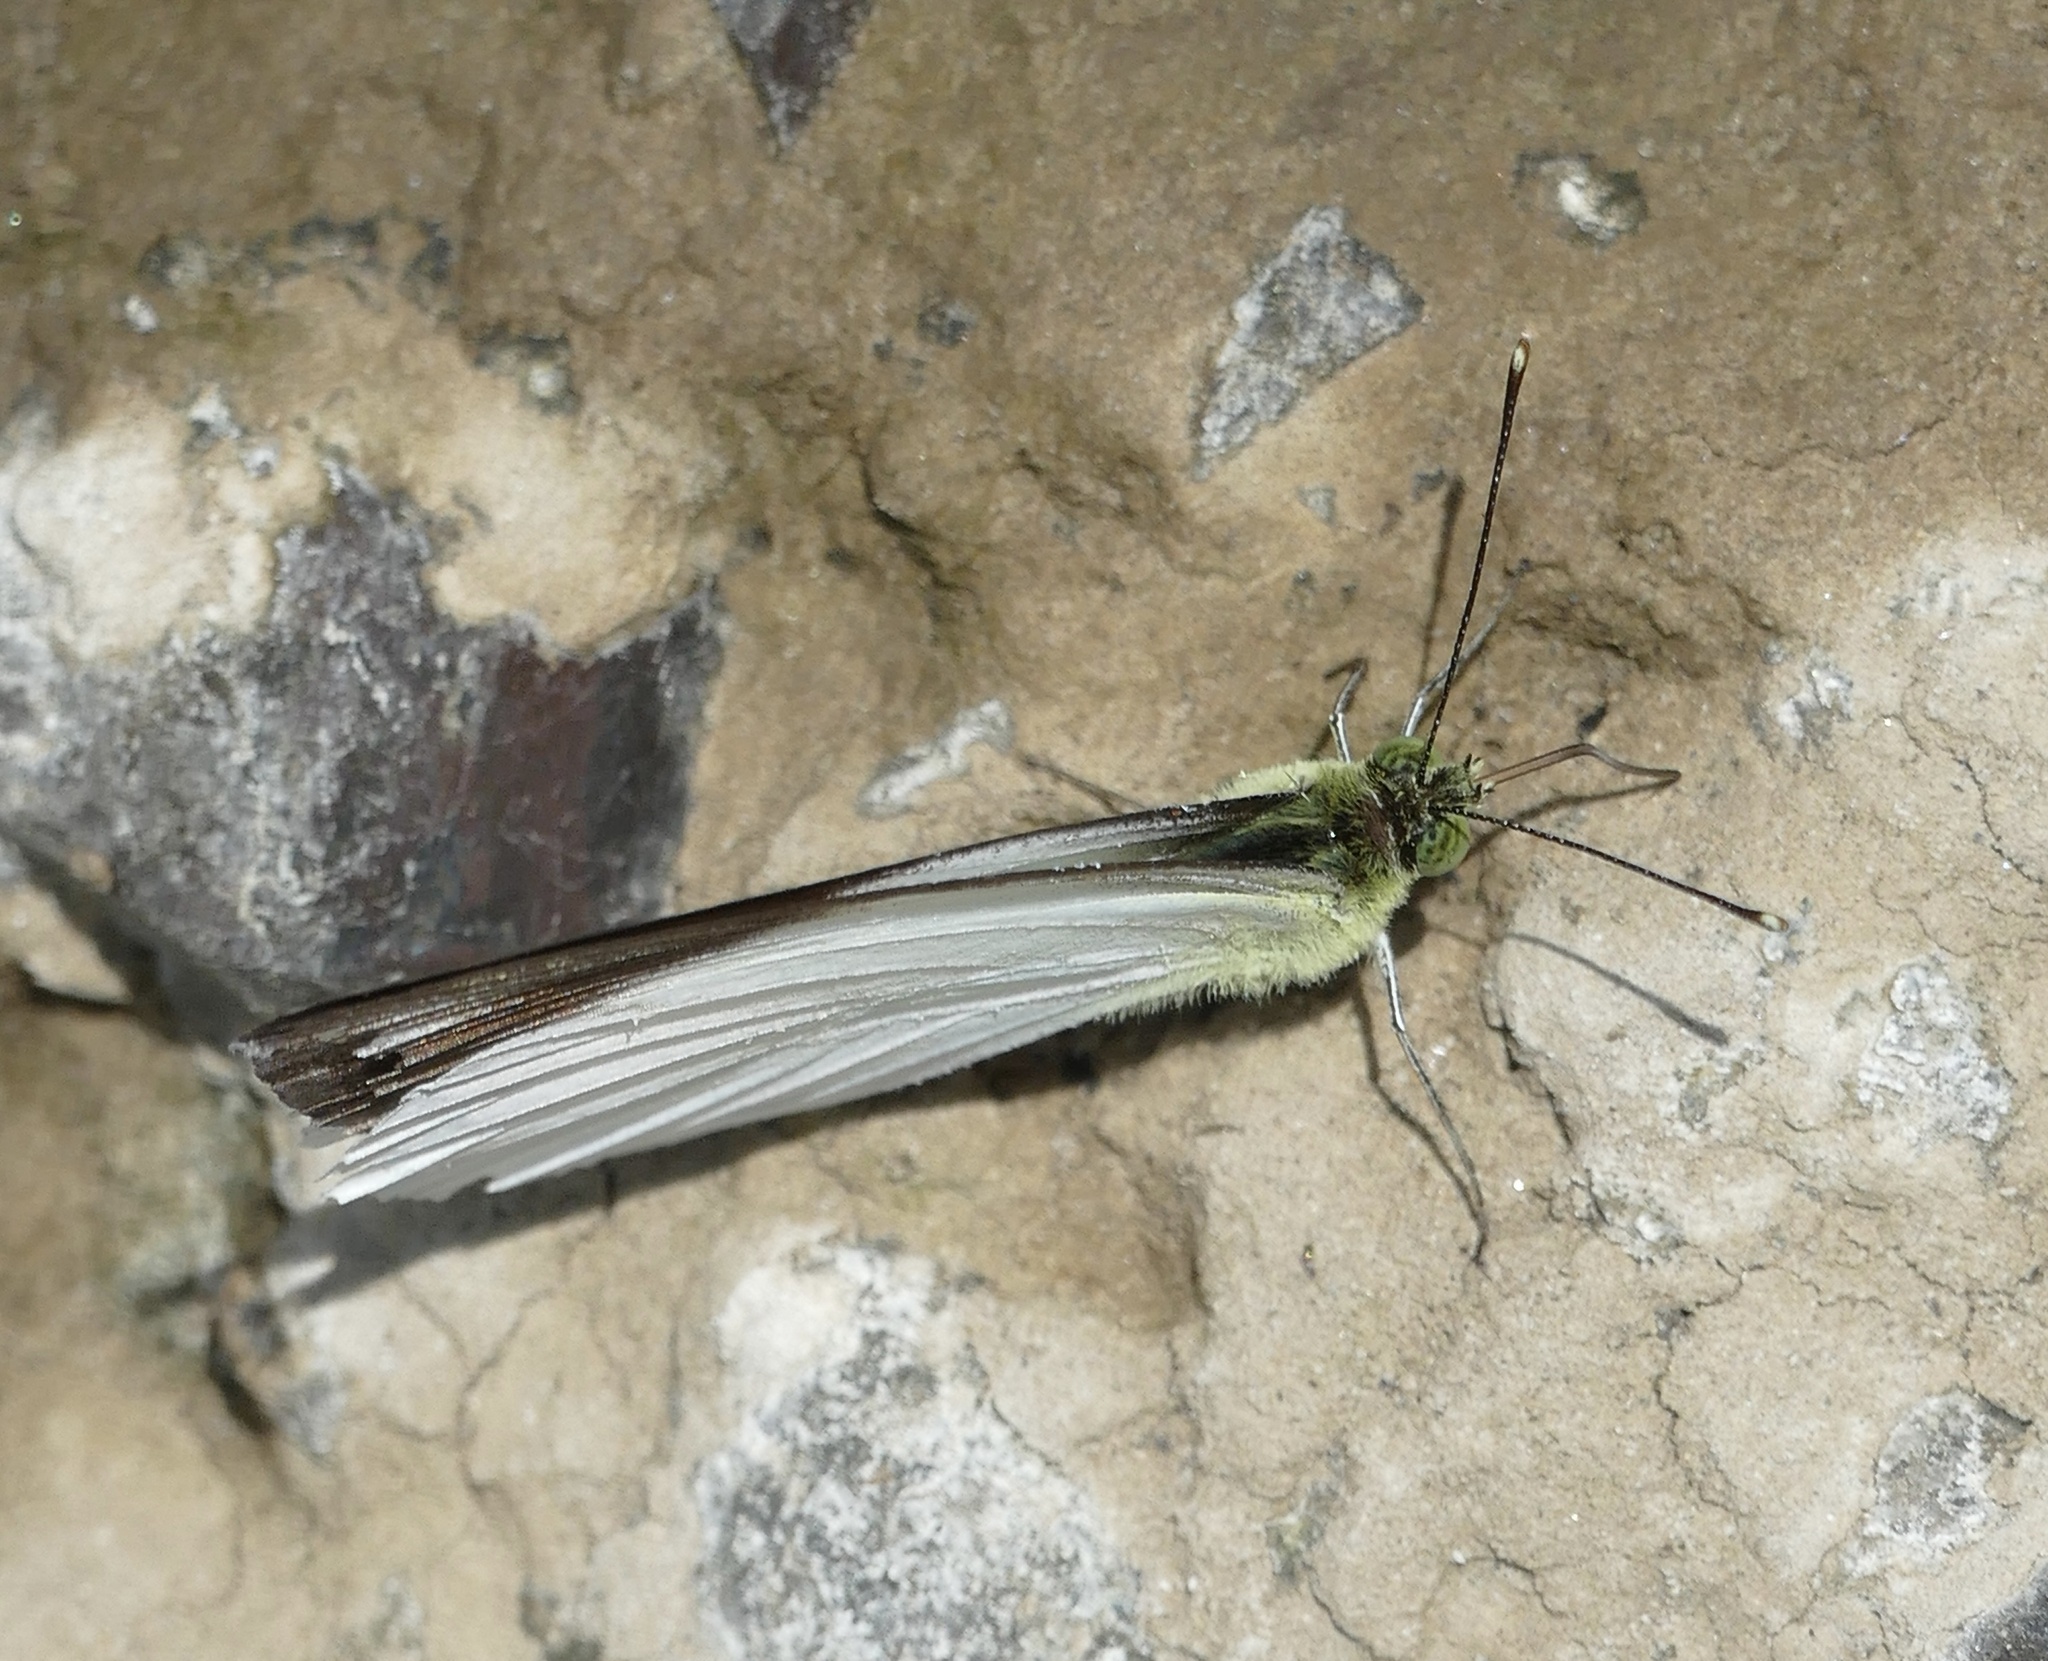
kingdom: Animalia
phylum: Arthropoda
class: Insecta
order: Lepidoptera
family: Pieridae
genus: Appias
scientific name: Appias aegis
